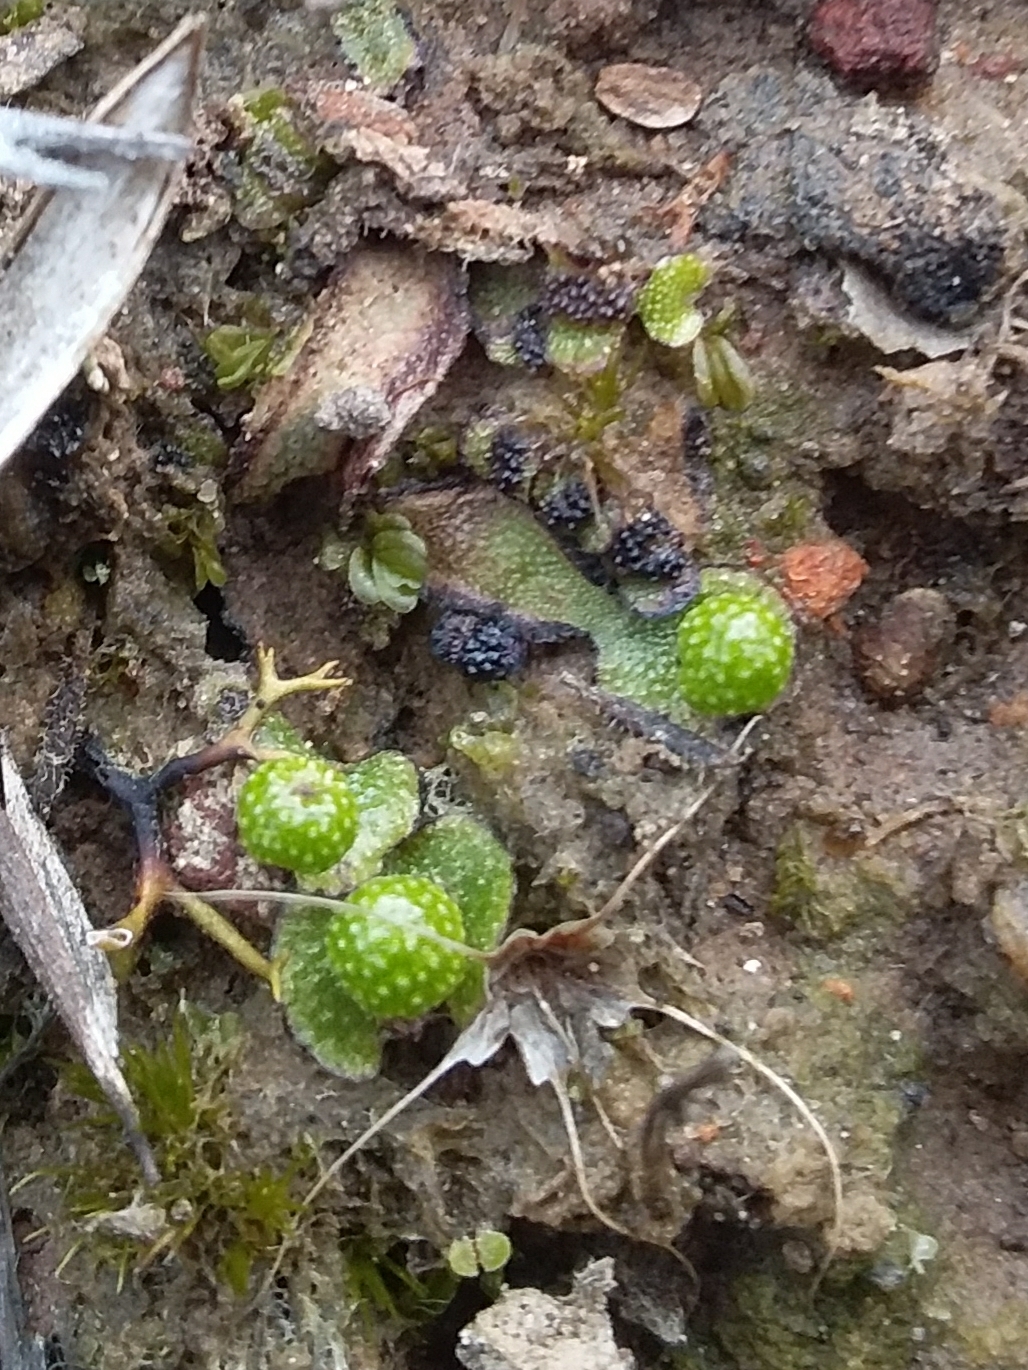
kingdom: Plantae
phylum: Marchantiophyta
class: Marchantiopsida
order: Marchantiales
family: Aytoniaceae
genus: Asterella
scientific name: Asterella drummondii
